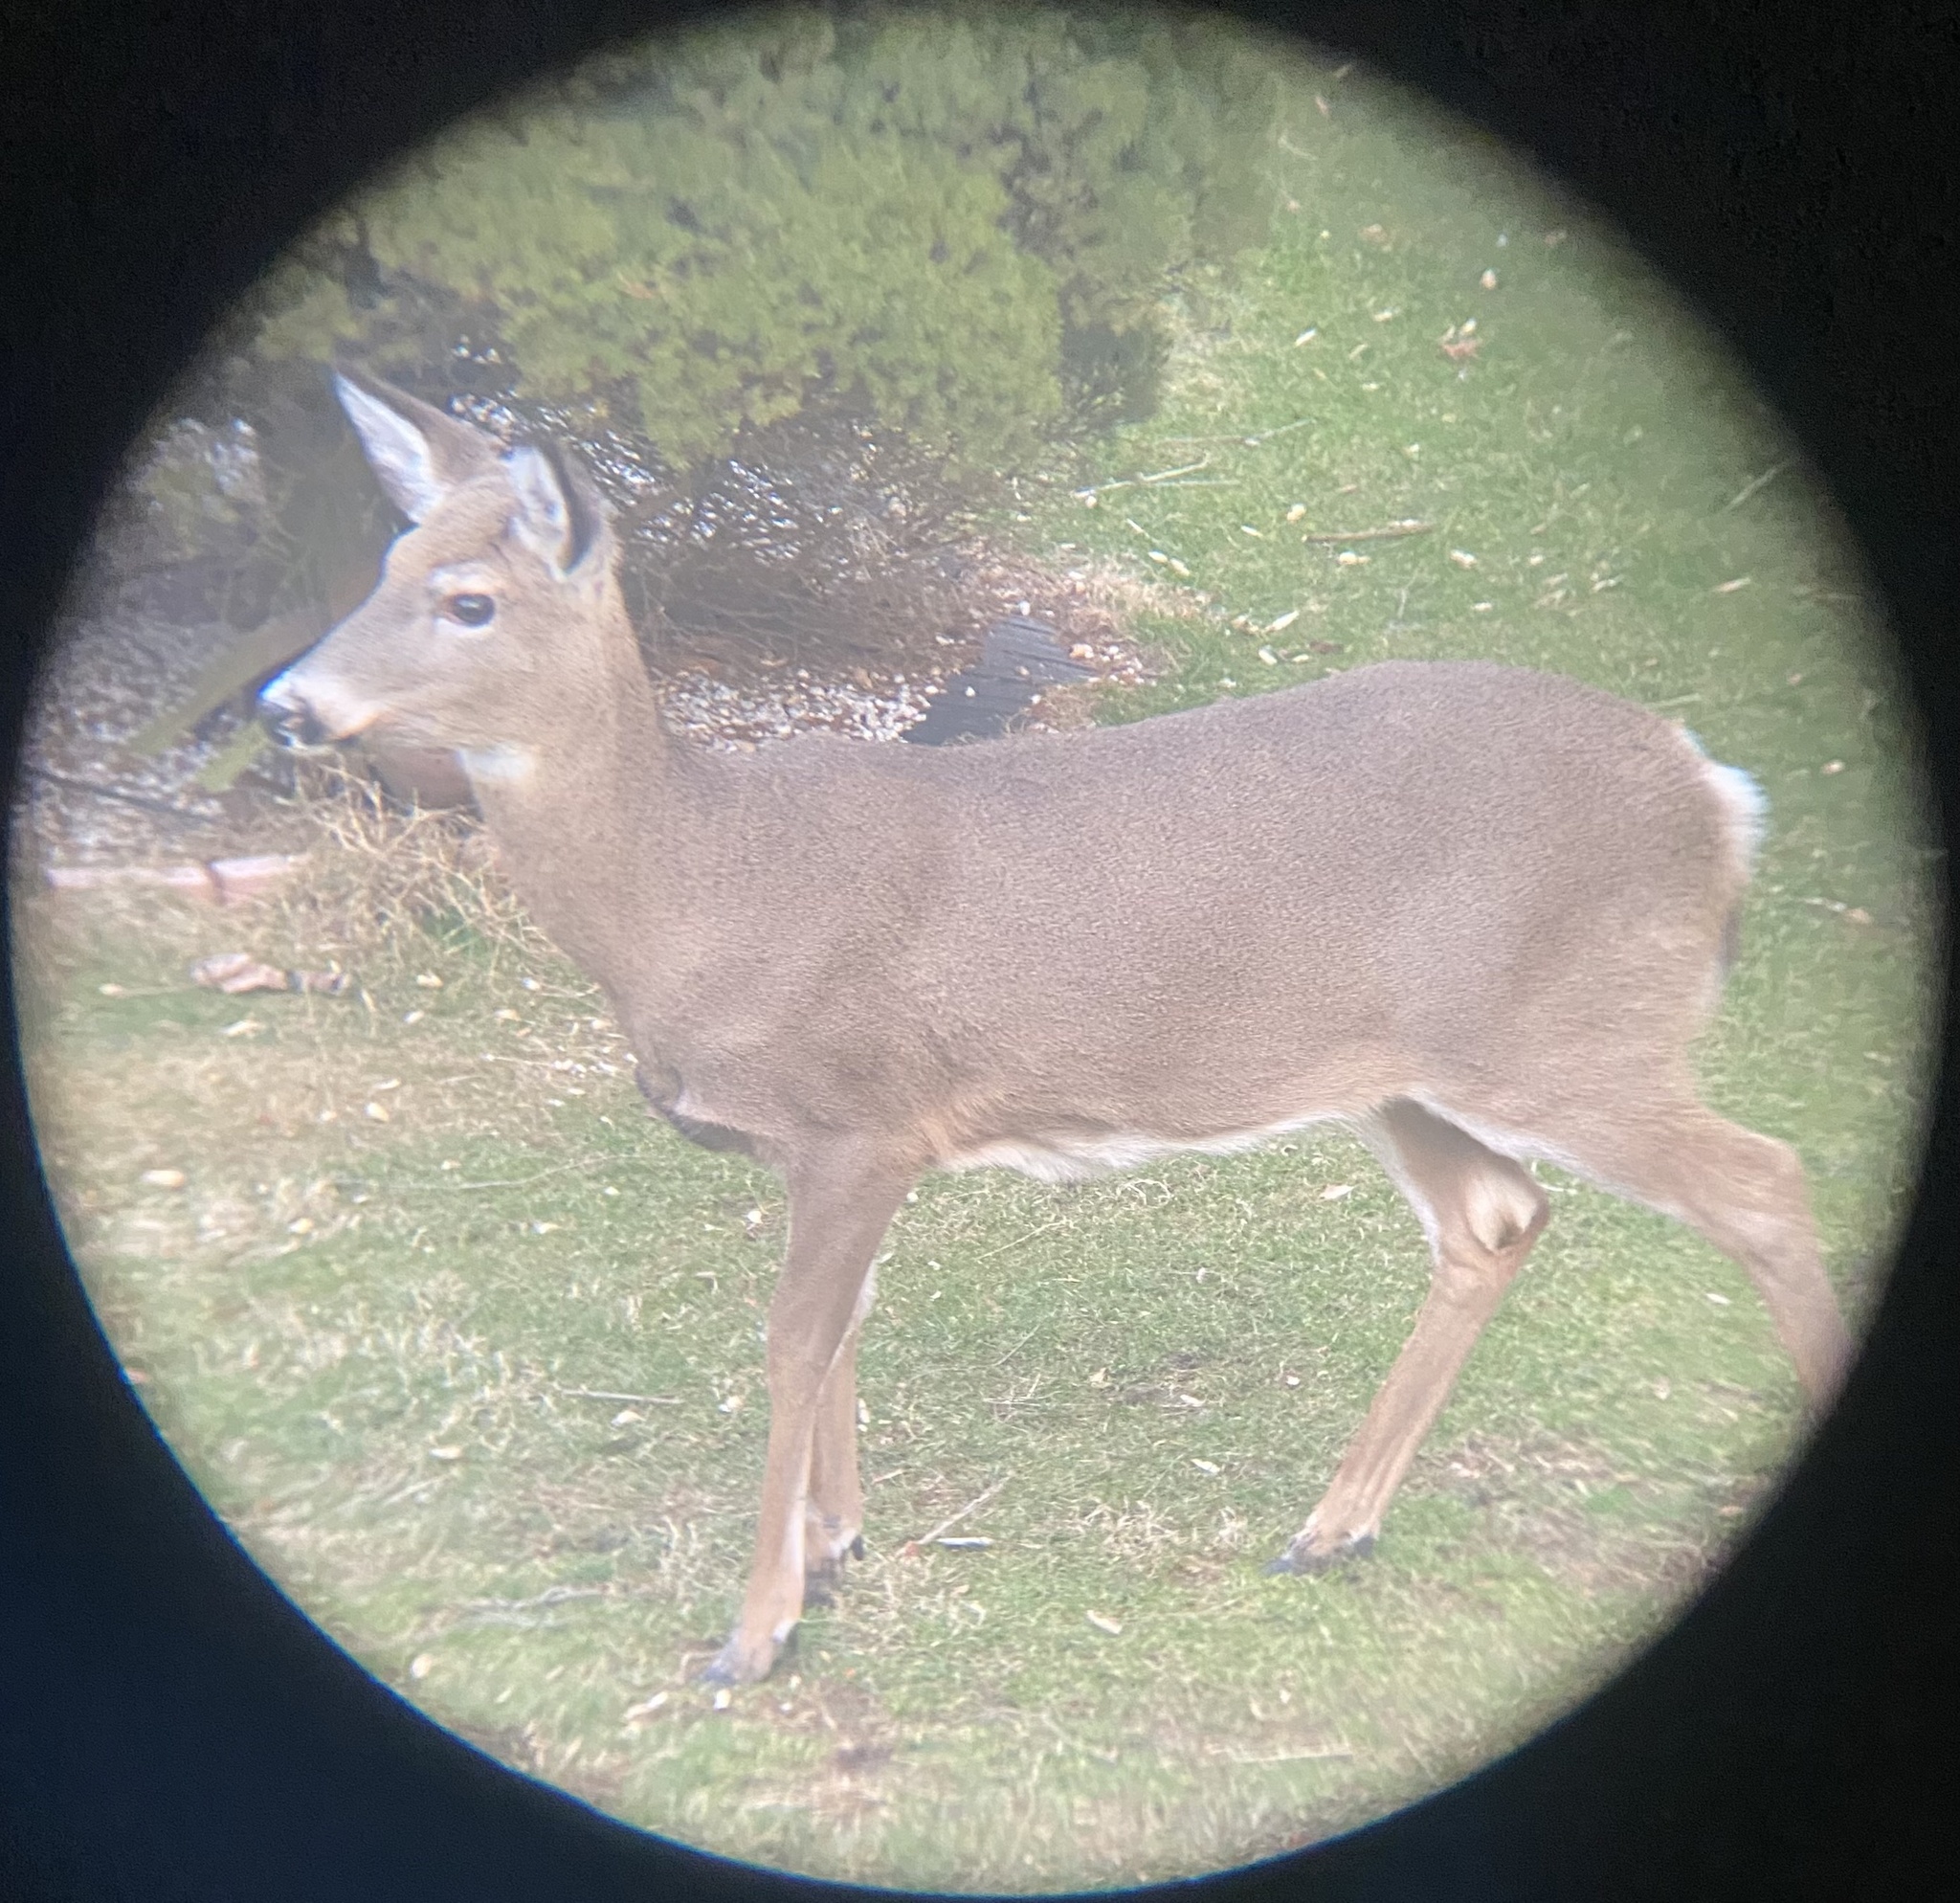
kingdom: Animalia
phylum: Chordata
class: Mammalia
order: Artiodactyla
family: Cervidae
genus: Odocoileus
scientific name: Odocoileus virginianus
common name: White-tailed deer
